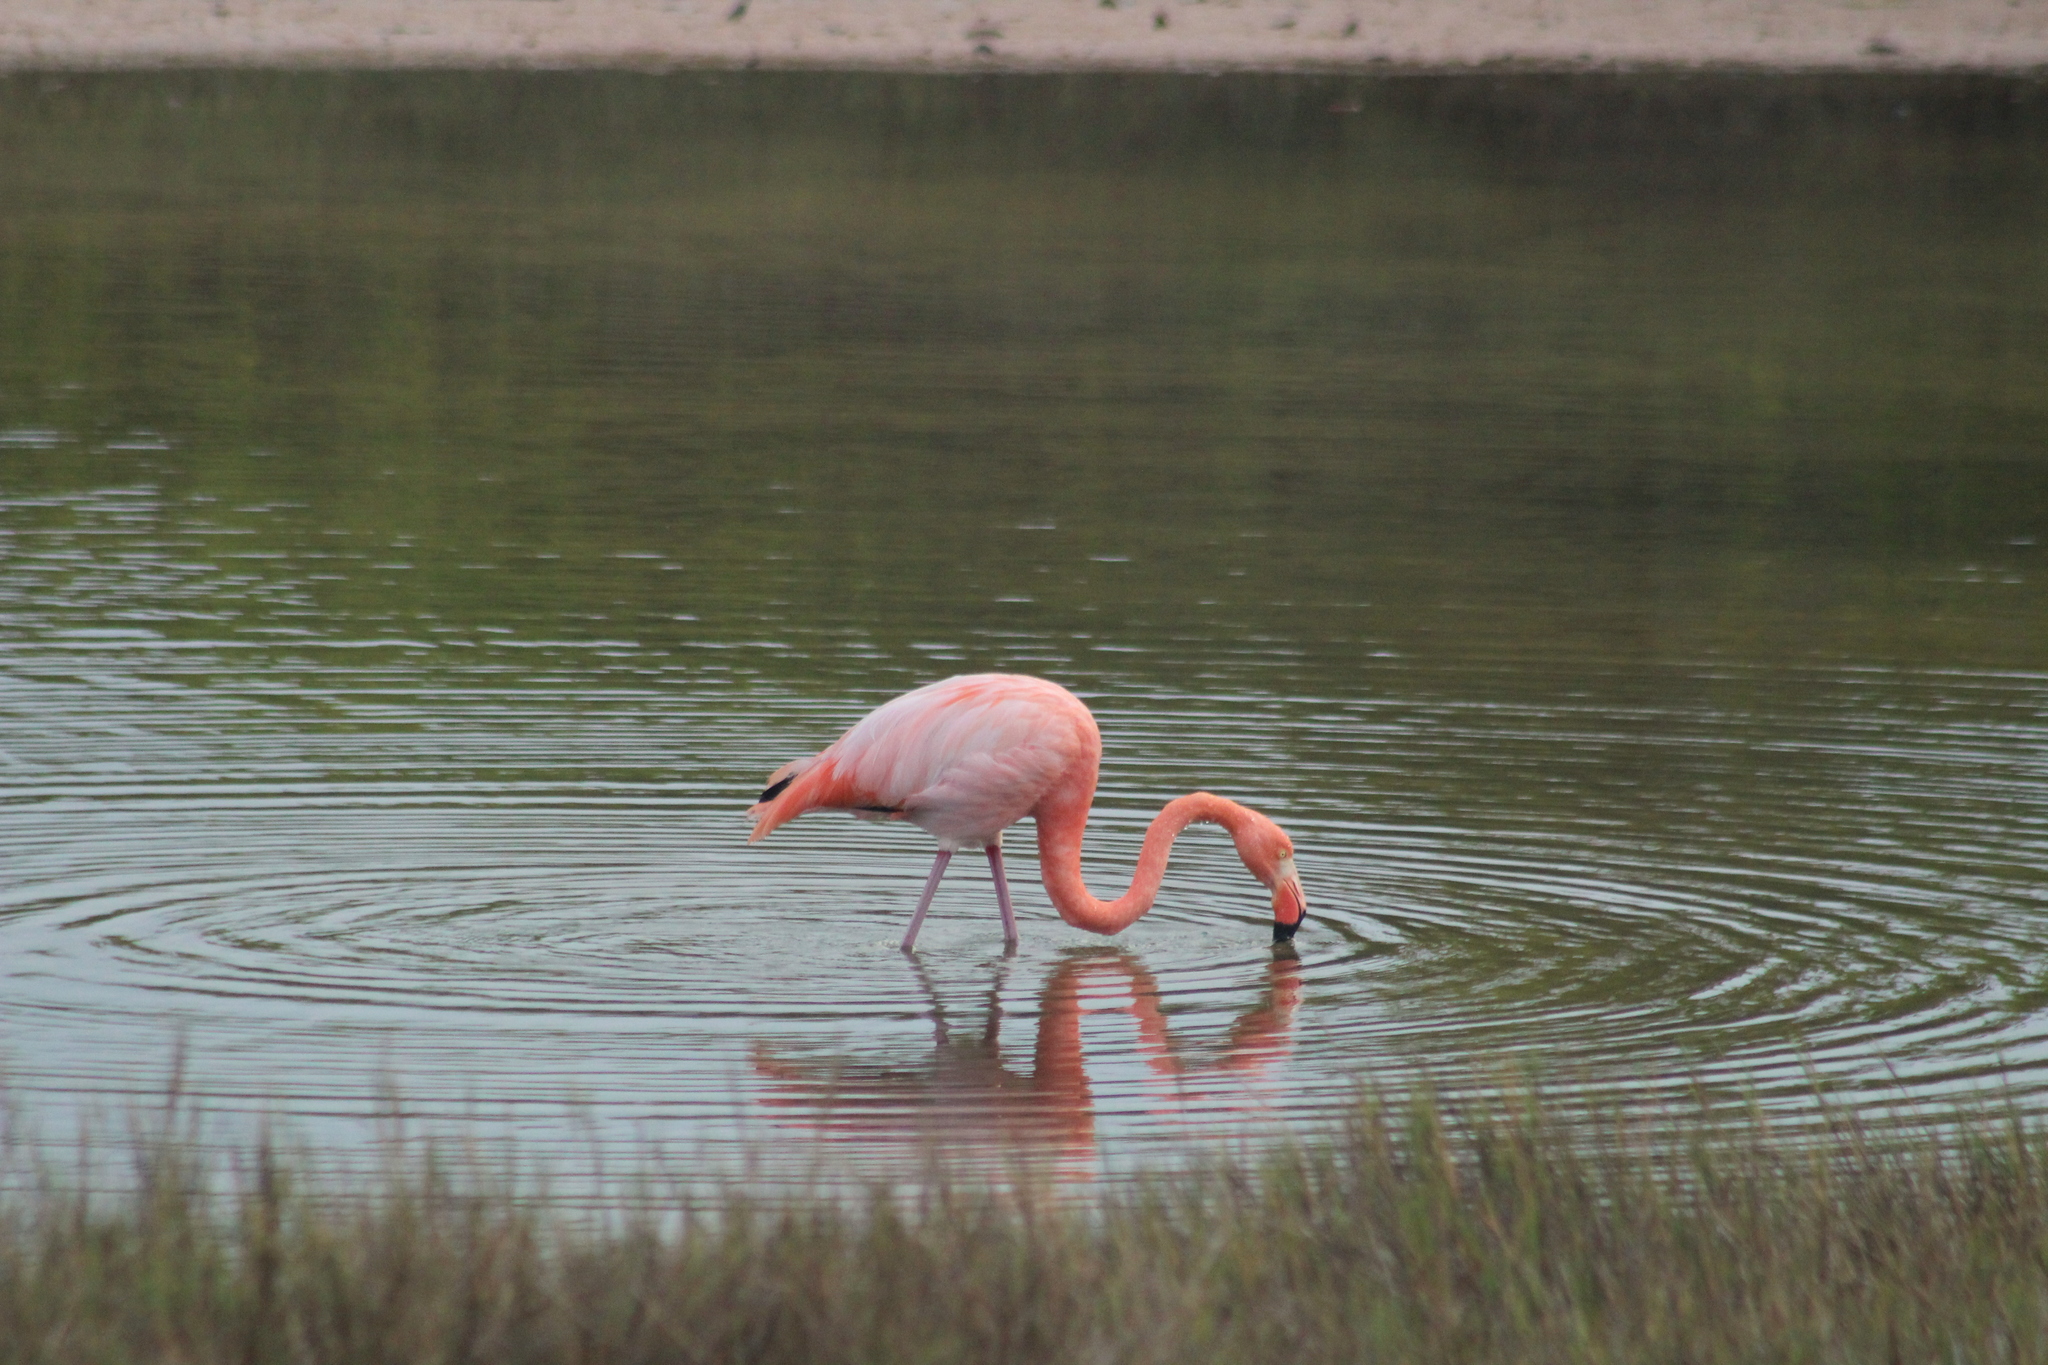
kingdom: Animalia
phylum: Chordata
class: Aves
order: Phoenicopteriformes
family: Phoenicopteridae
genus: Phoenicopterus
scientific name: Phoenicopterus ruber
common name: American flamingo
